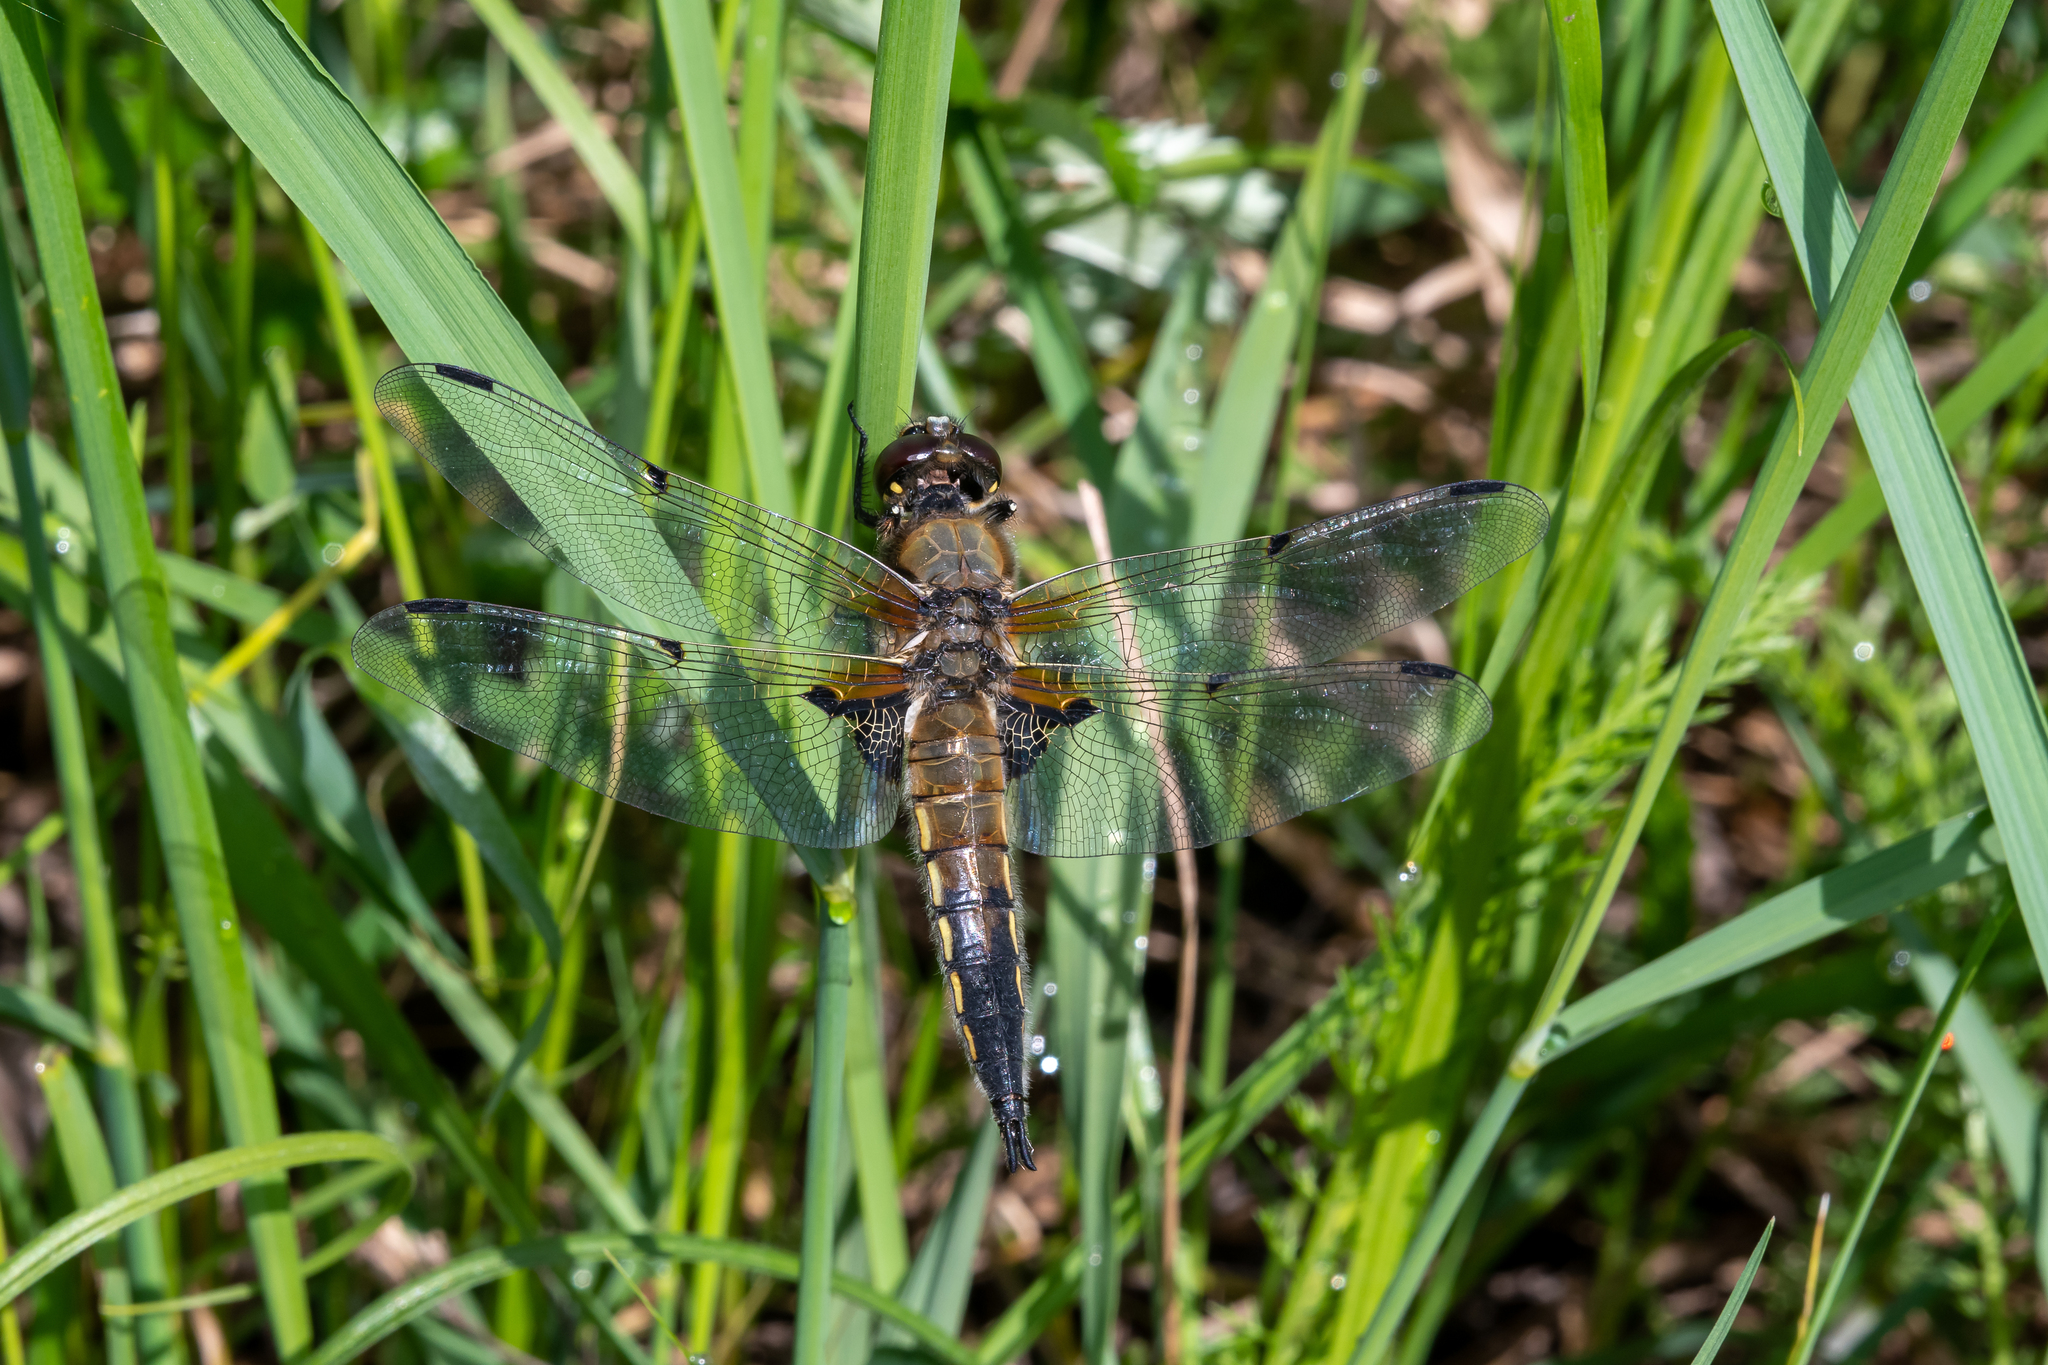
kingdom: Animalia
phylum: Arthropoda
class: Insecta
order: Odonata
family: Libellulidae
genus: Libellula
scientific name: Libellula quadrimaculata
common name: Four-spotted chaser
